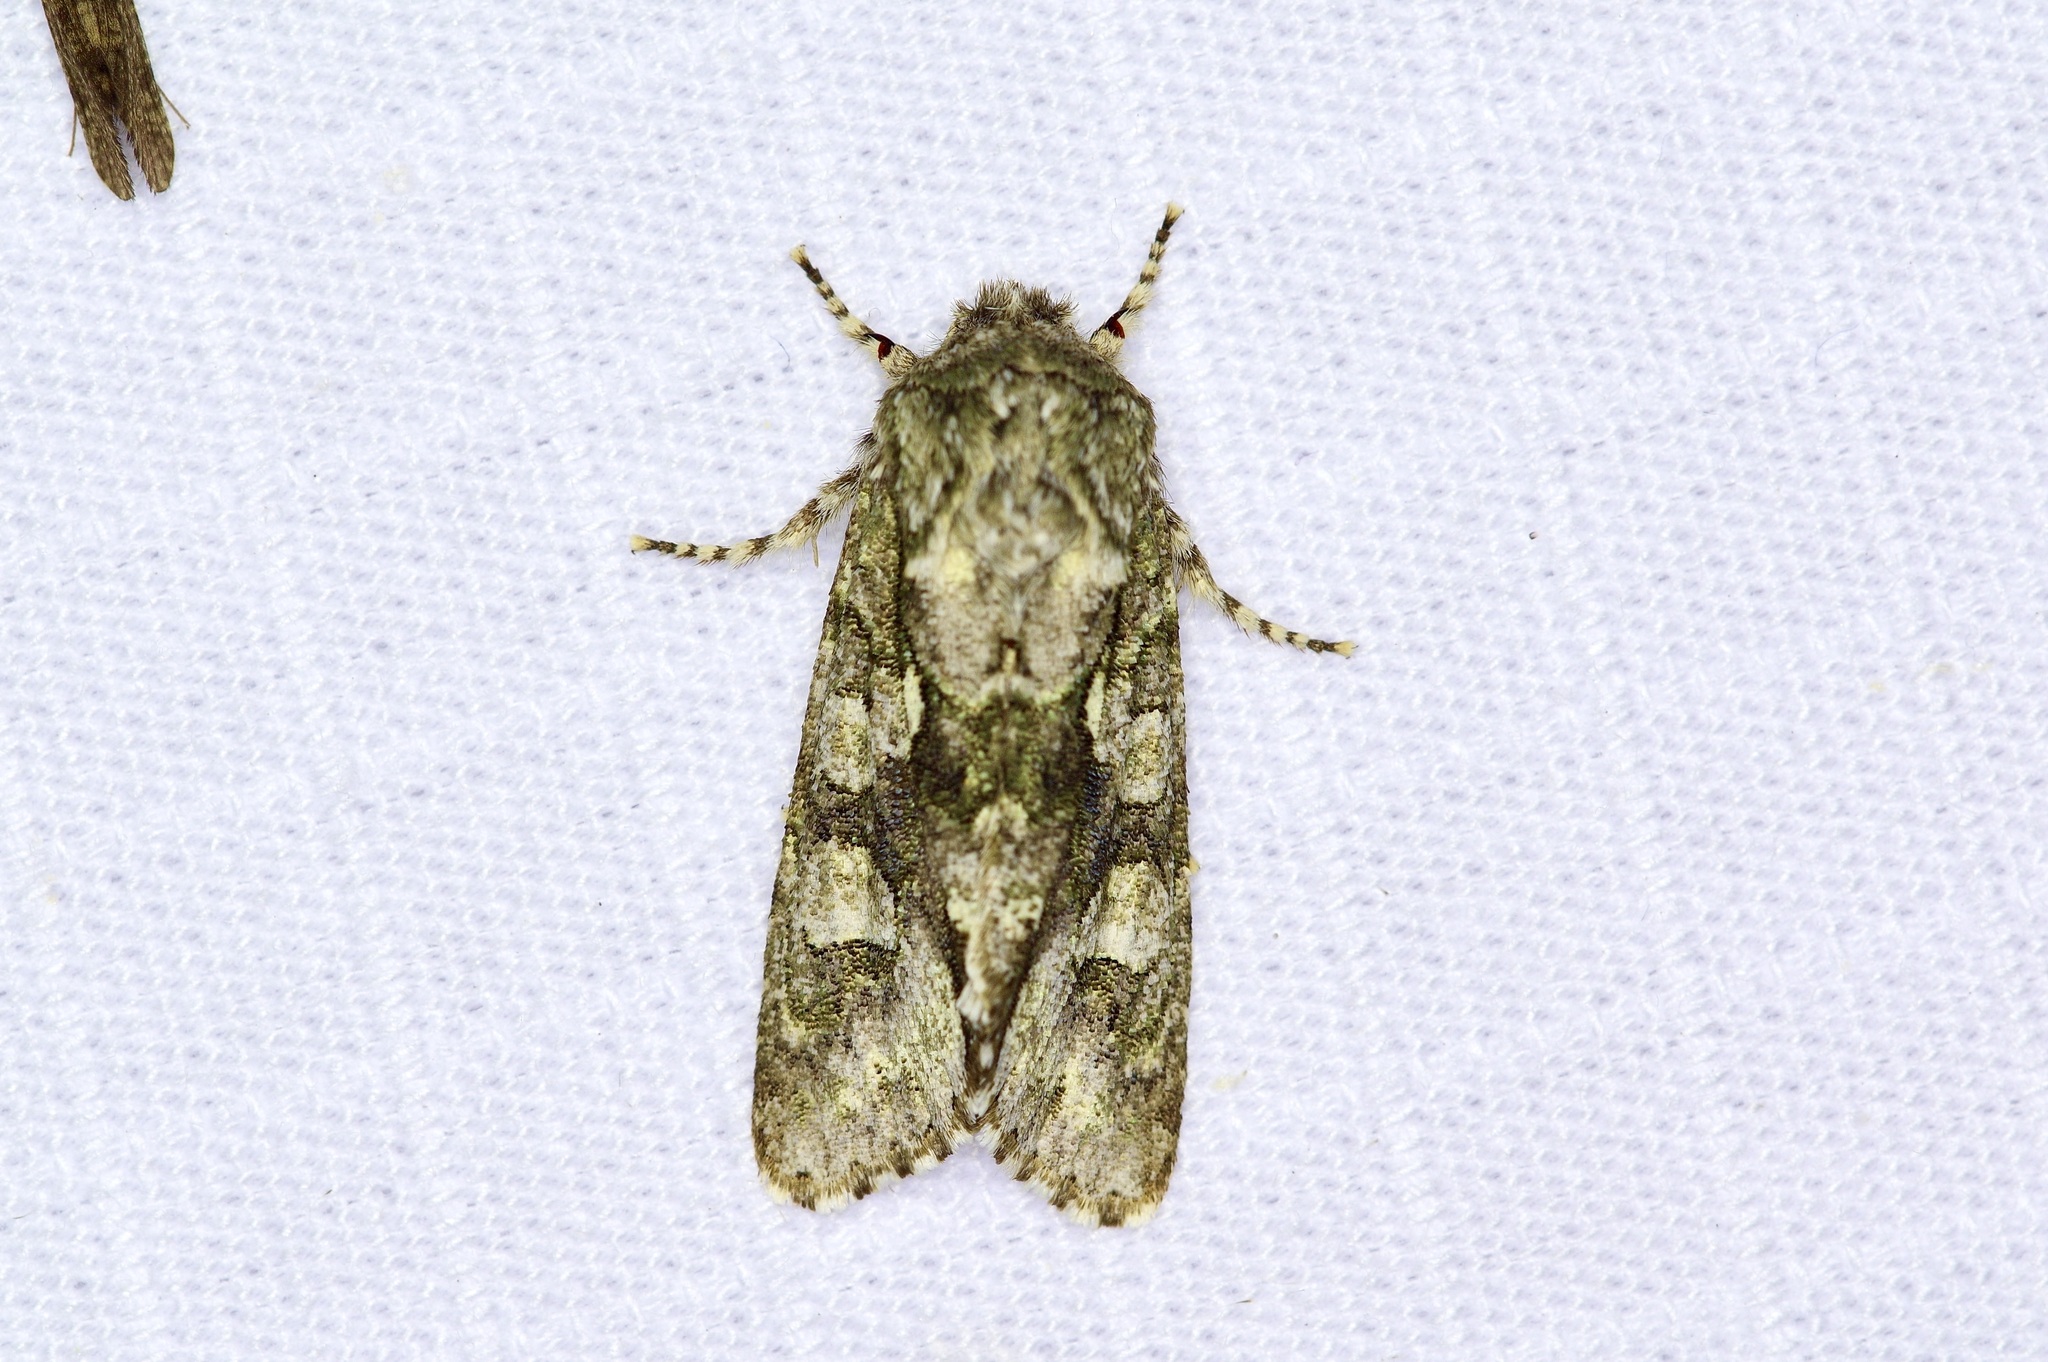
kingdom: Animalia
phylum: Arthropoda
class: Insecta
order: Lepidoptera
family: Noctuidae
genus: Psaphida
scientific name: Psaphida resumens
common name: Figure-eight sallow
